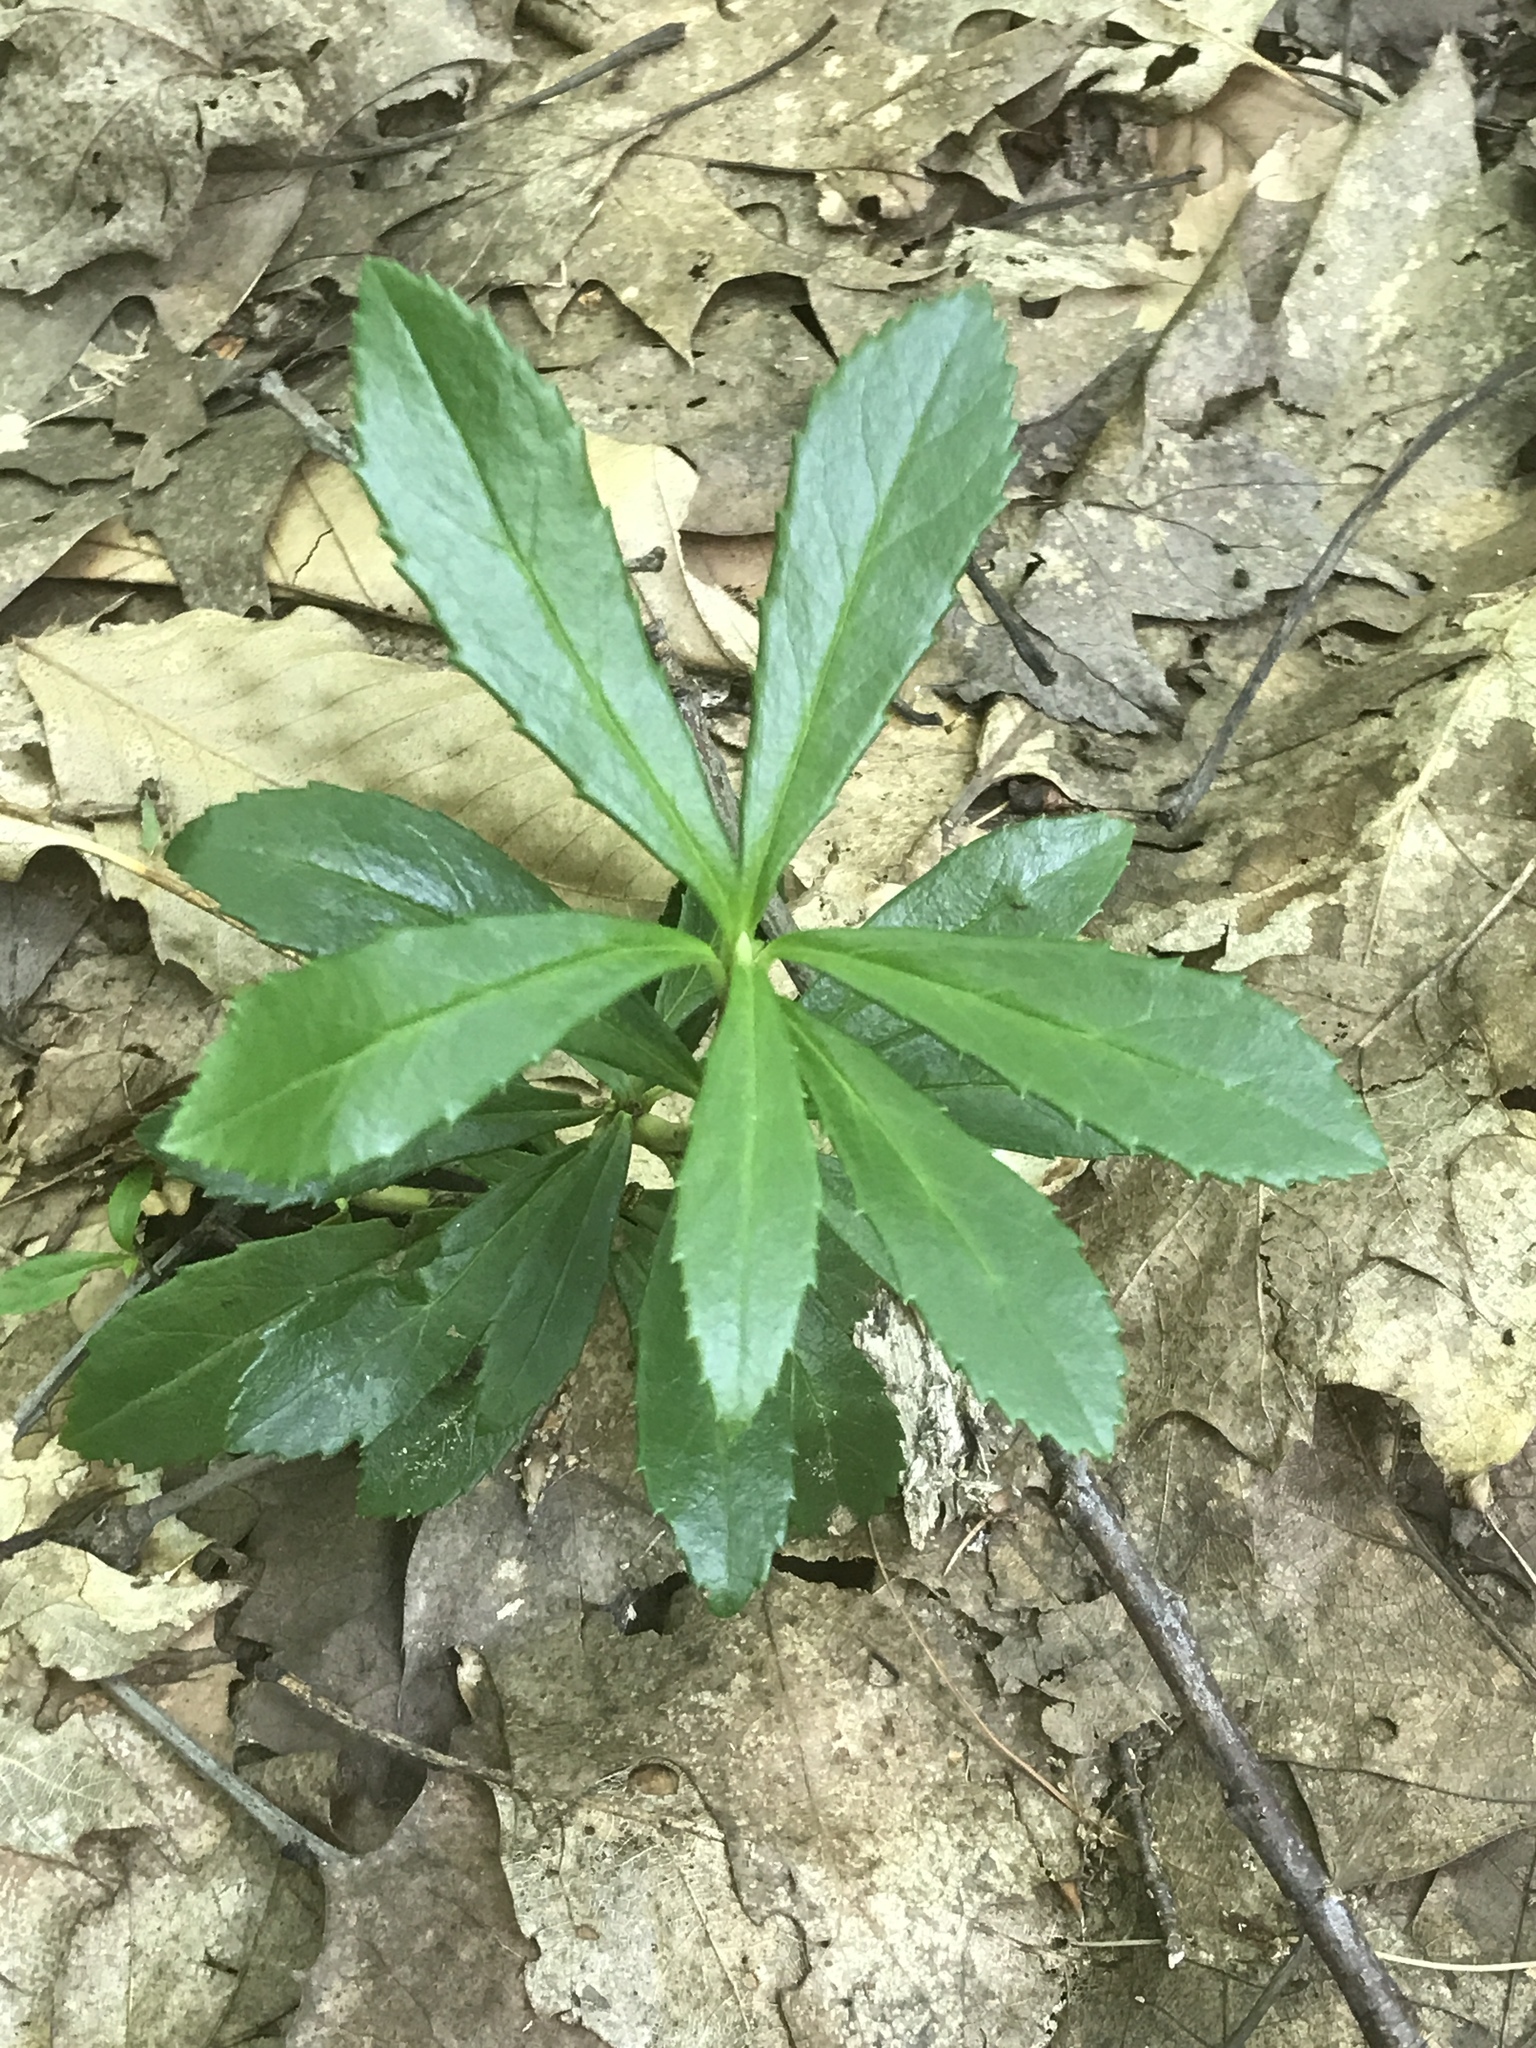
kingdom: Plantae
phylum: Tracheophyta
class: Magnoliopsida
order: Ericales
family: Ericaceae
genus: Chimaphila
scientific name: Chimaphila umbellata
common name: Pipsissewa
